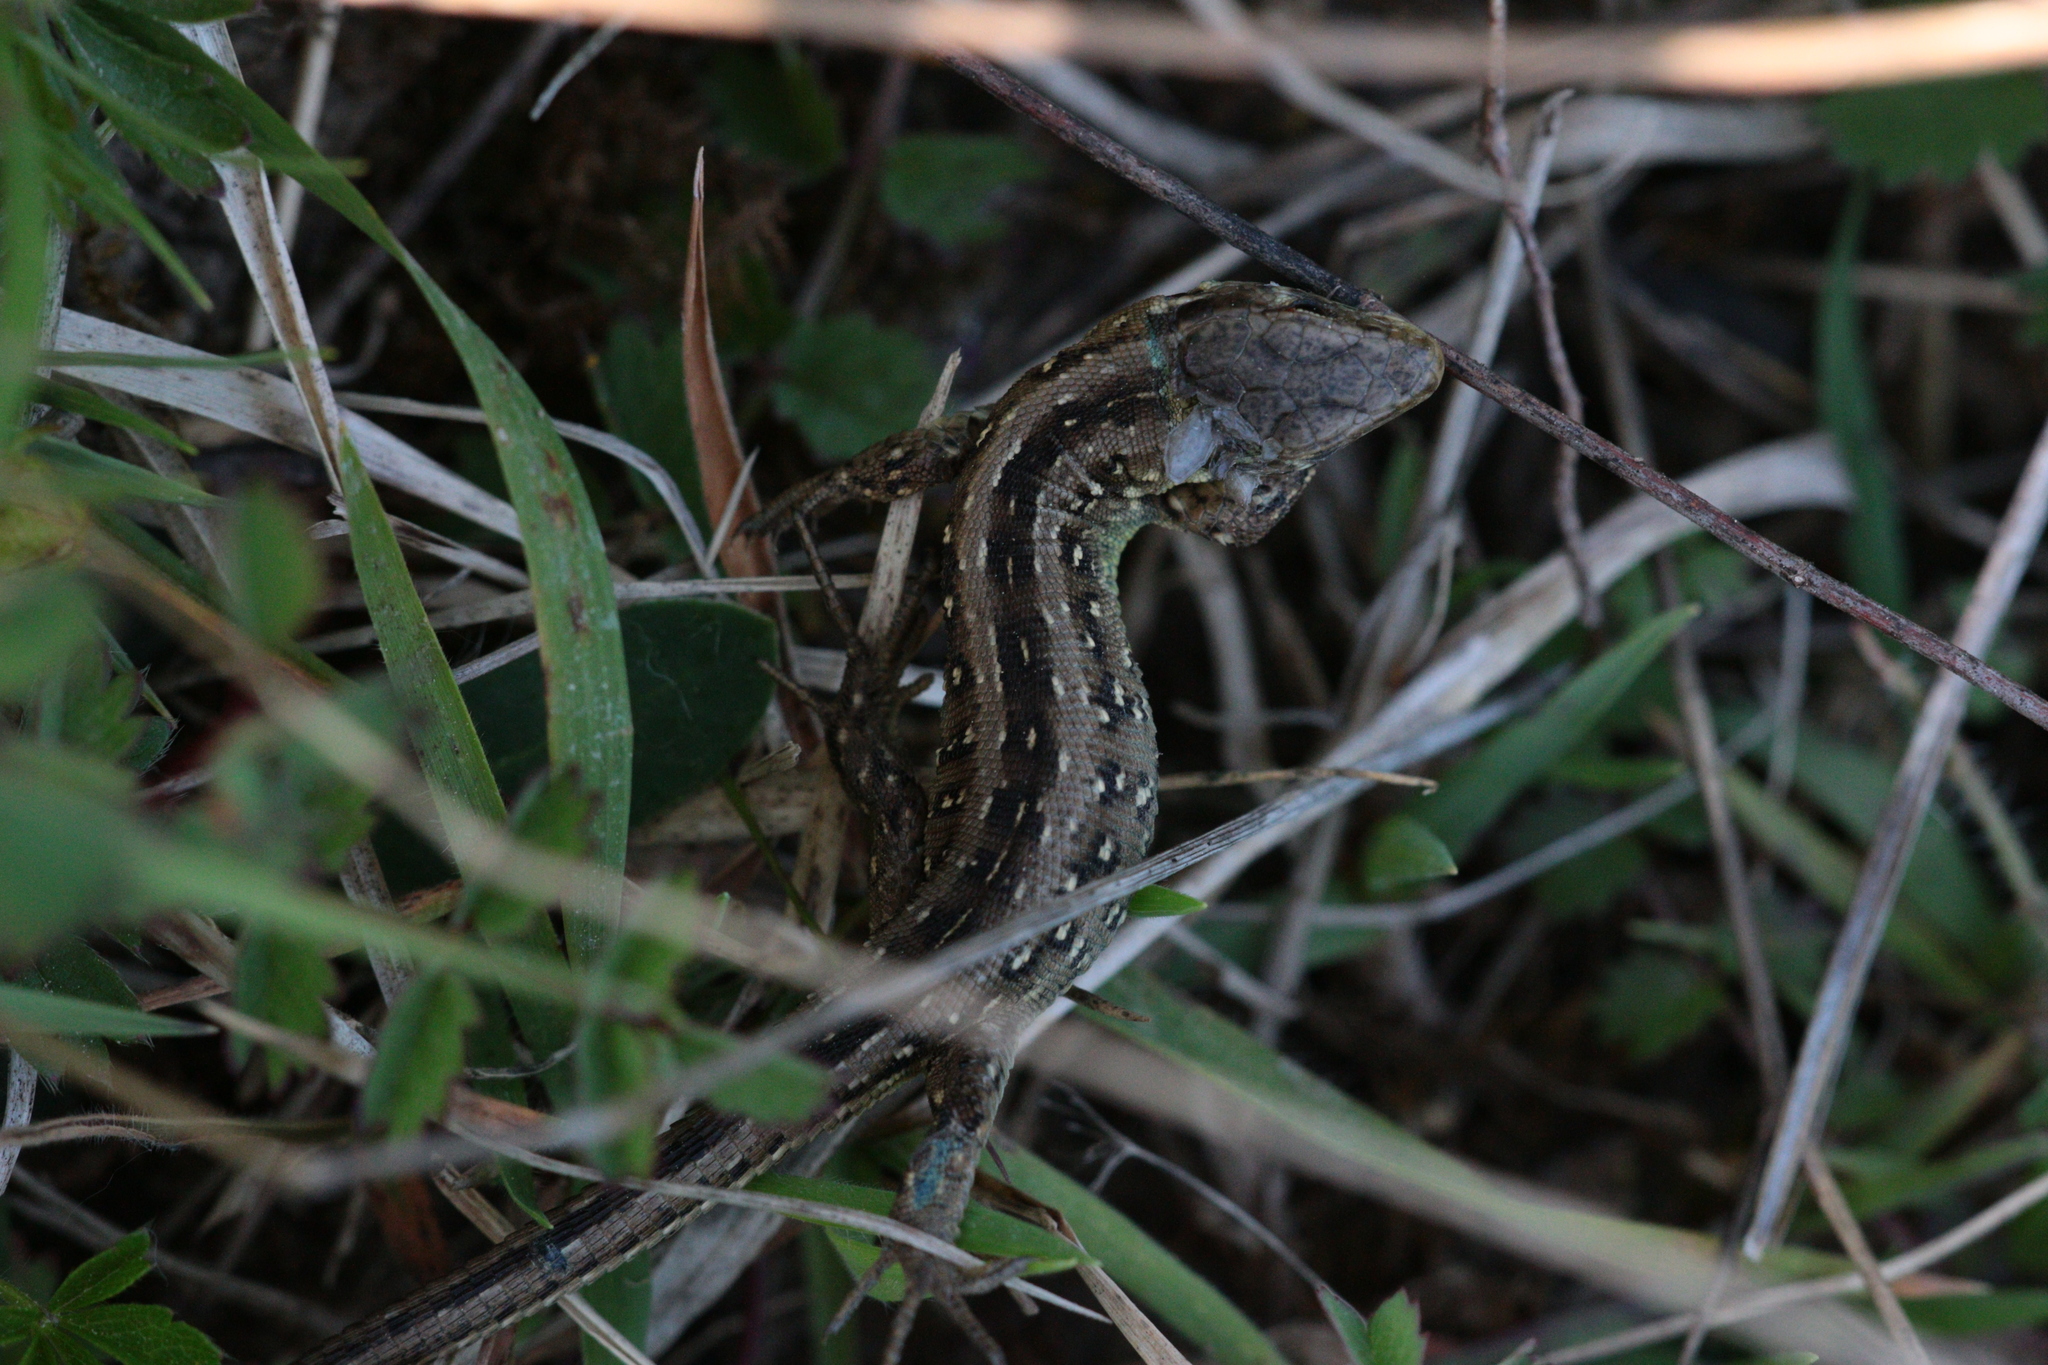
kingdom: Animalia
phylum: Chordata
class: Squamata
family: Lacertidae
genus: Lacerta
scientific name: Lacerta agilis
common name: Sand lizard
